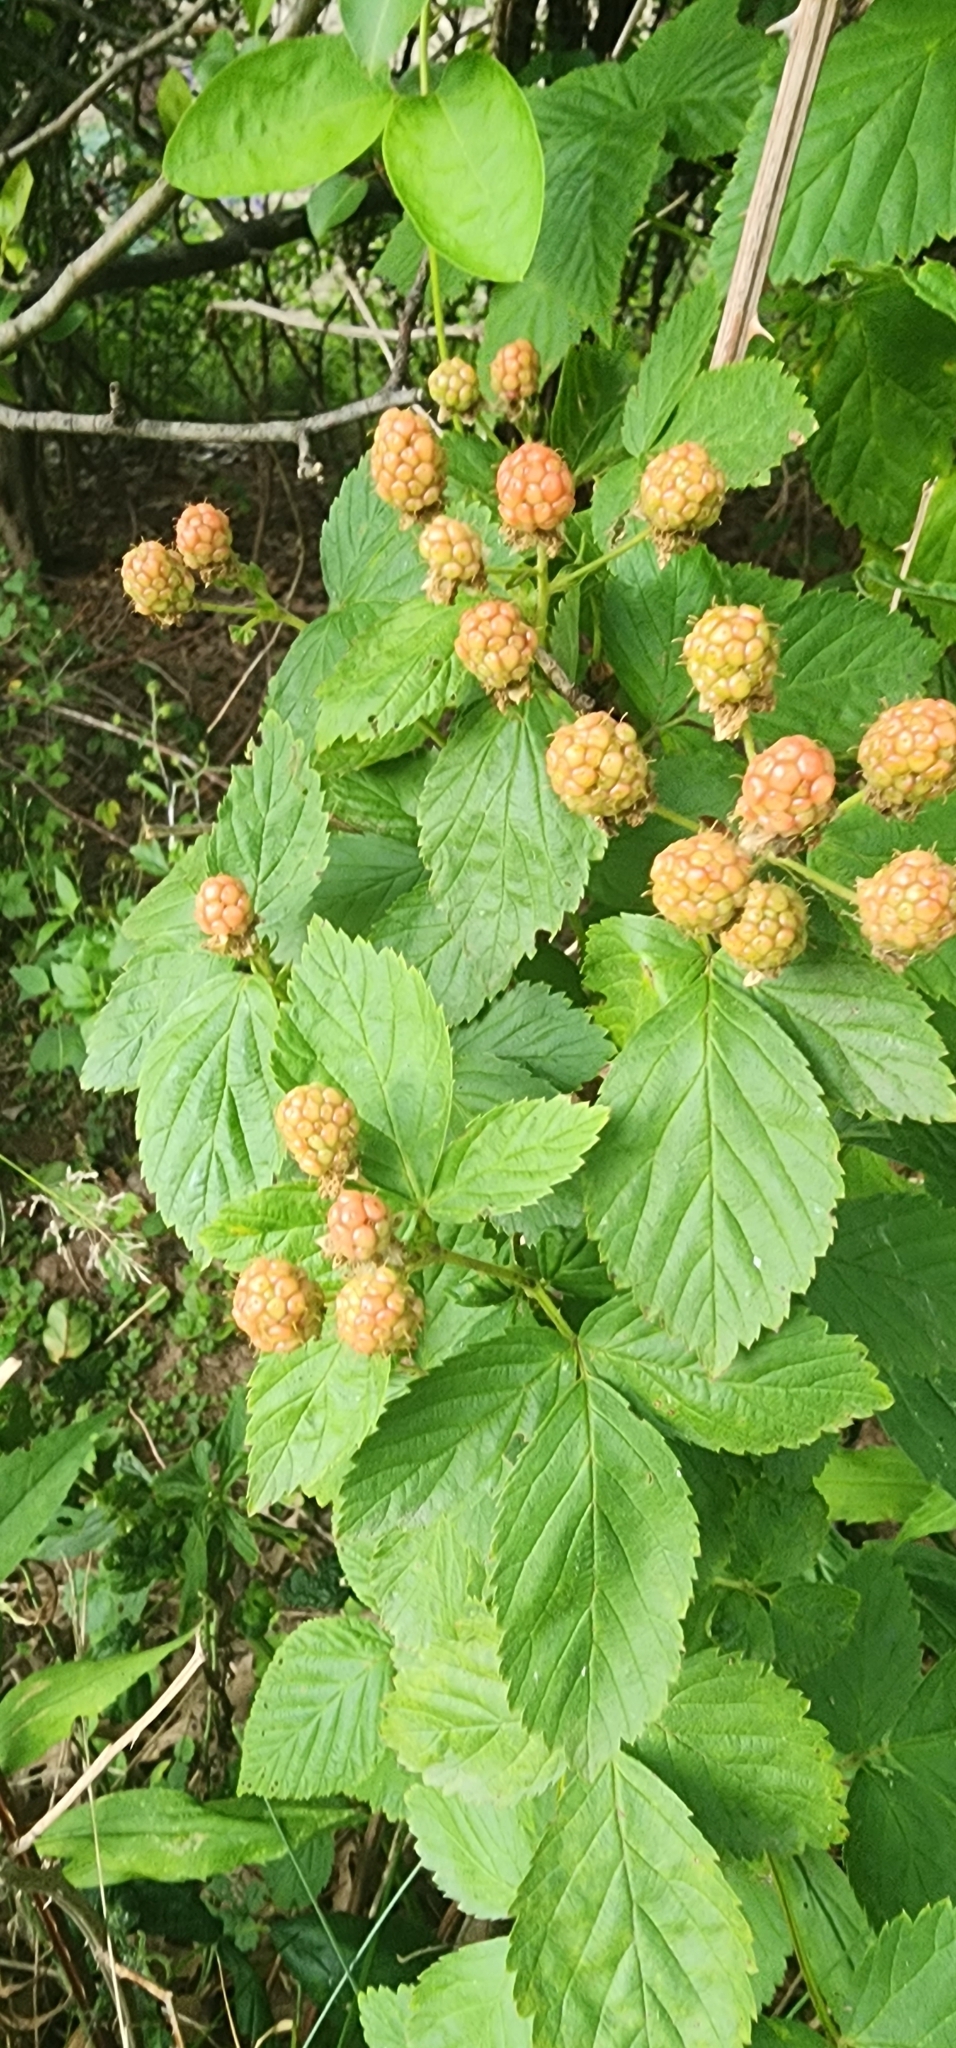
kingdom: Plantae
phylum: Tracheophyta
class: Magnoliopsida
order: Rosales
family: Rosaceae
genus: Rubus
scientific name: Rubus occidentalis
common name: Black raspberry
